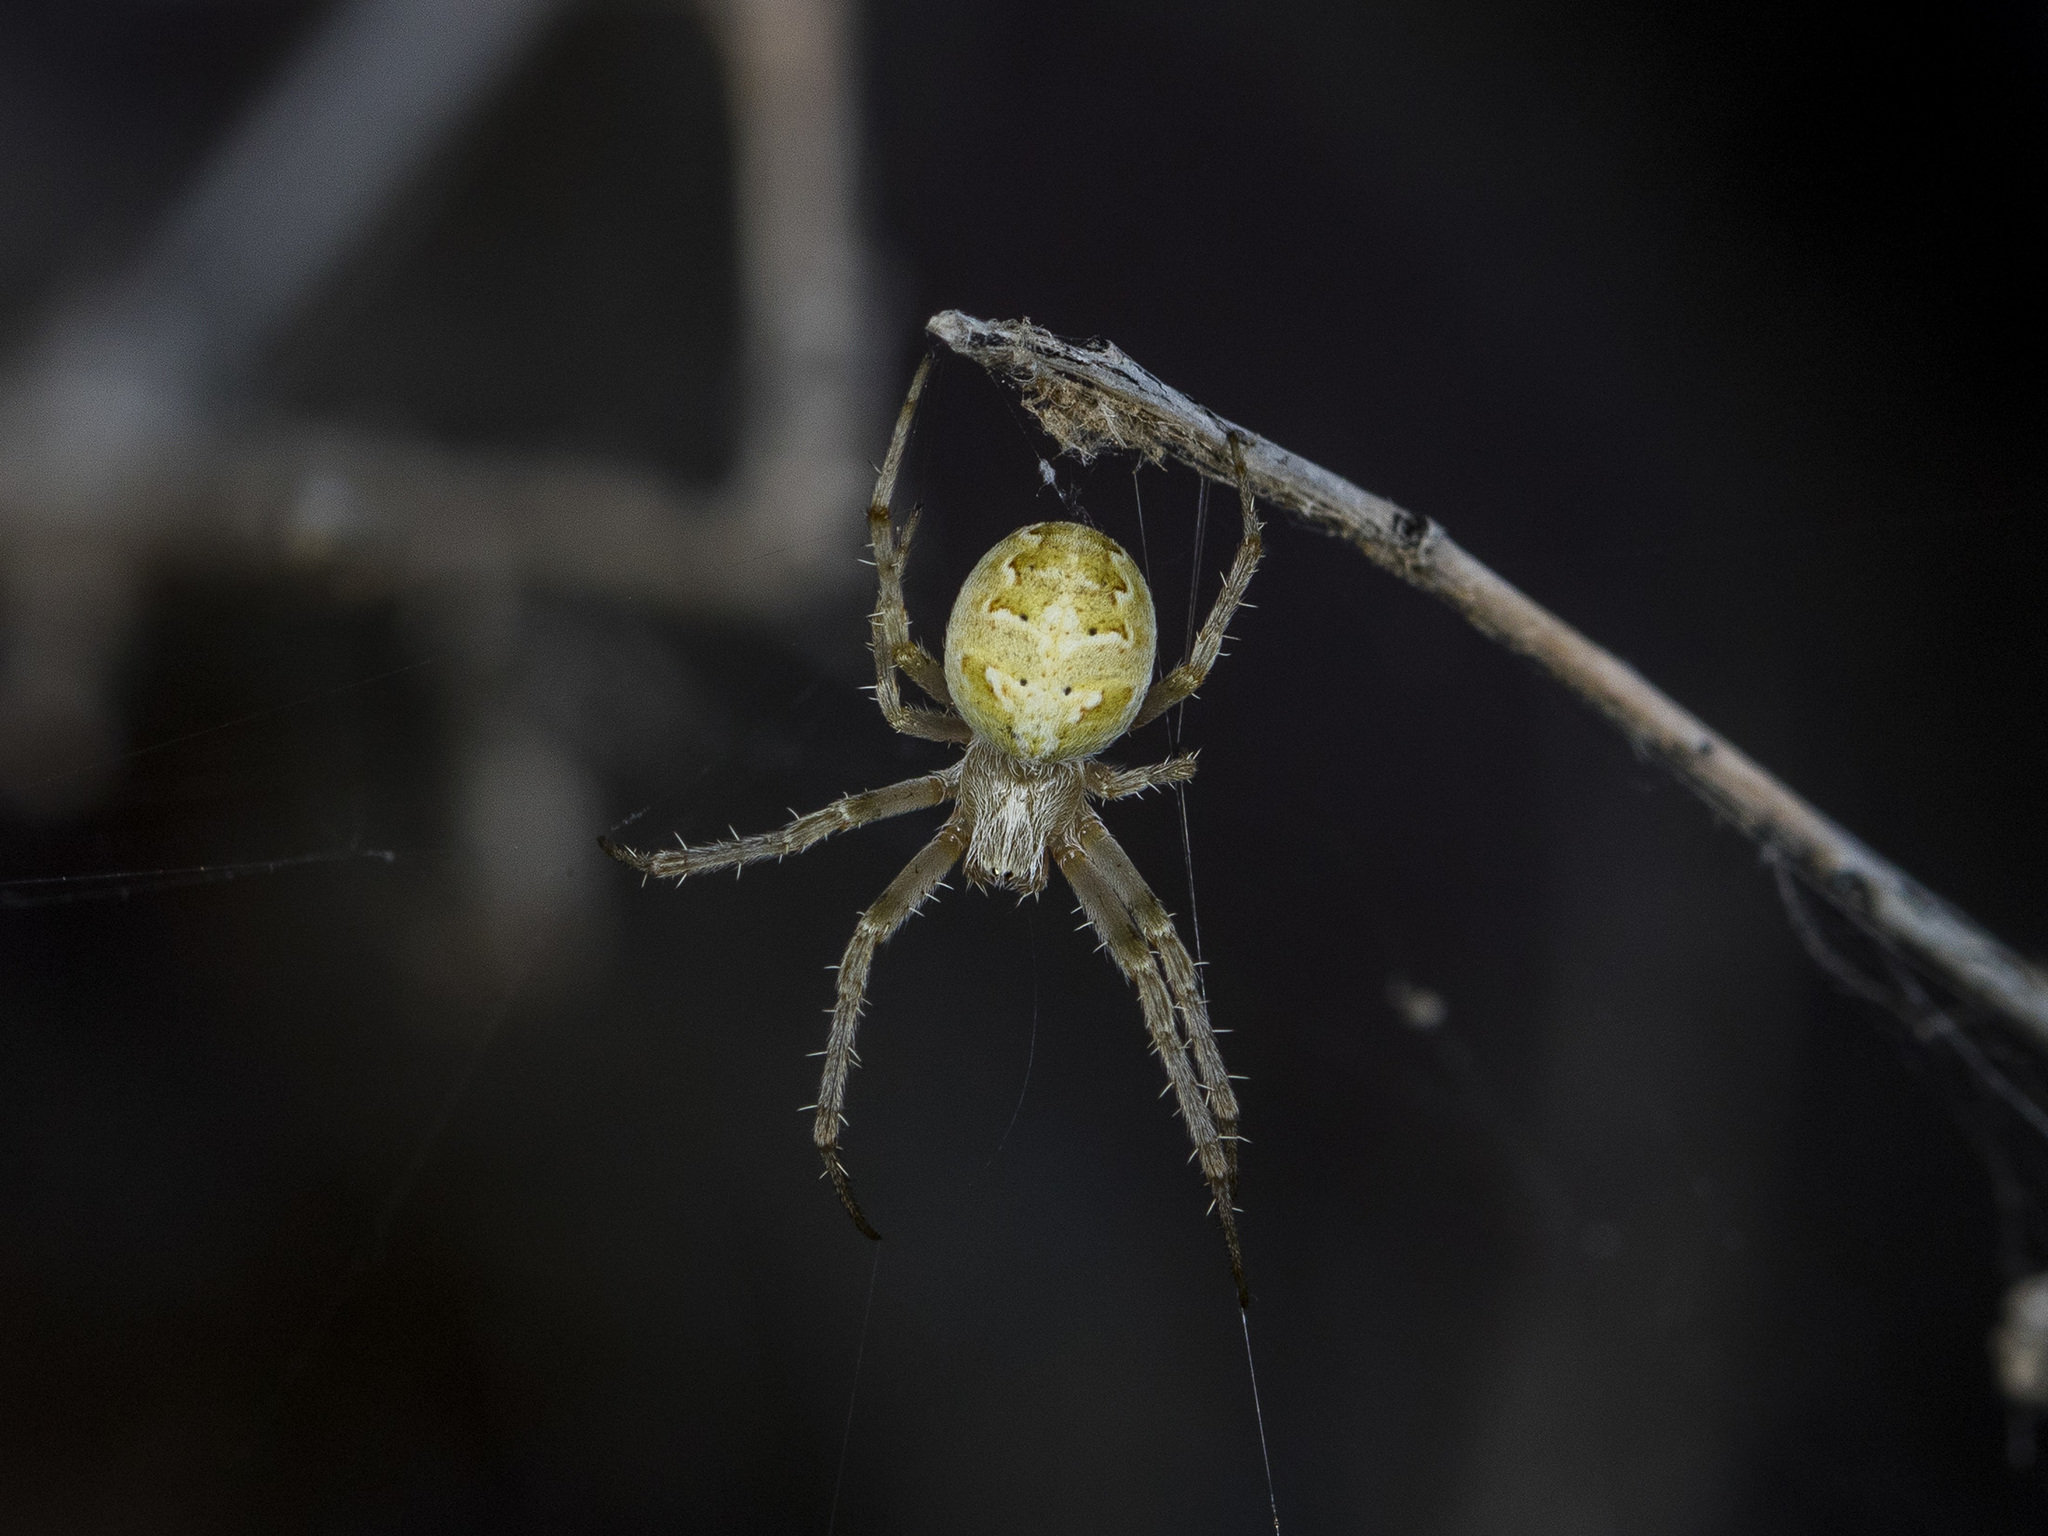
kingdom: Animalia
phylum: Arthropoda
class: Arachnida
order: Araneae
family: Araneidae
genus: Araneus
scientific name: Araneus pallasi
